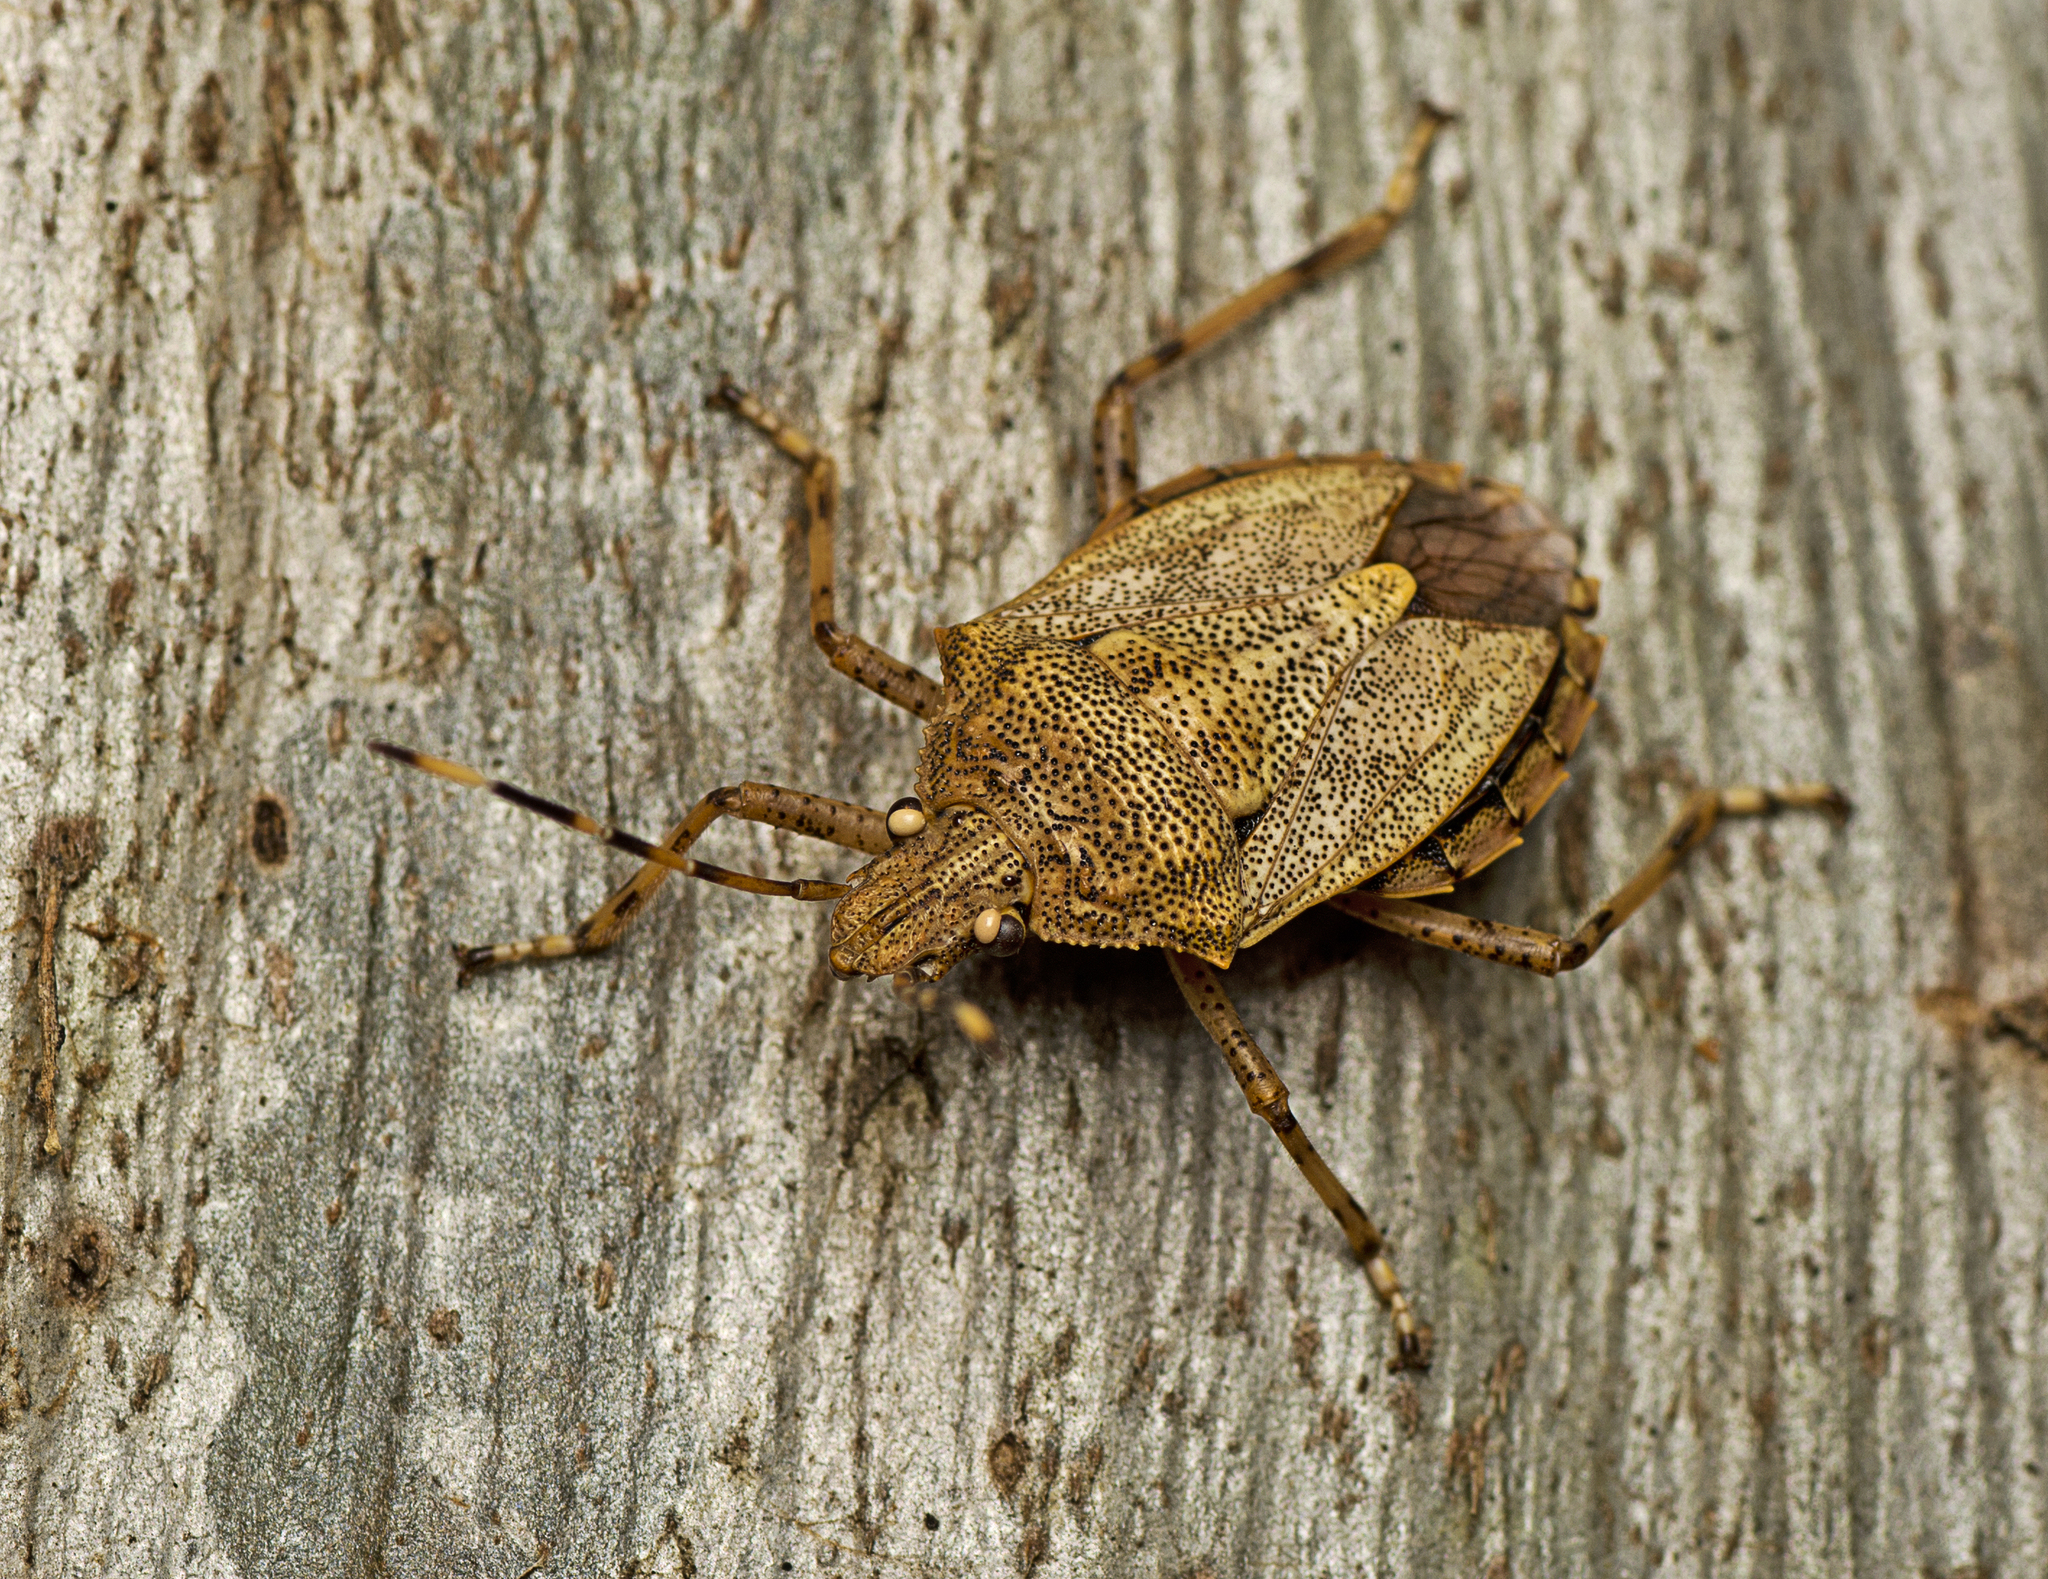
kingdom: Animalia
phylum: Arthropoda
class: Insecta
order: Hemiptera
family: Pentatomidae
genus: Anchises
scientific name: Anchises
